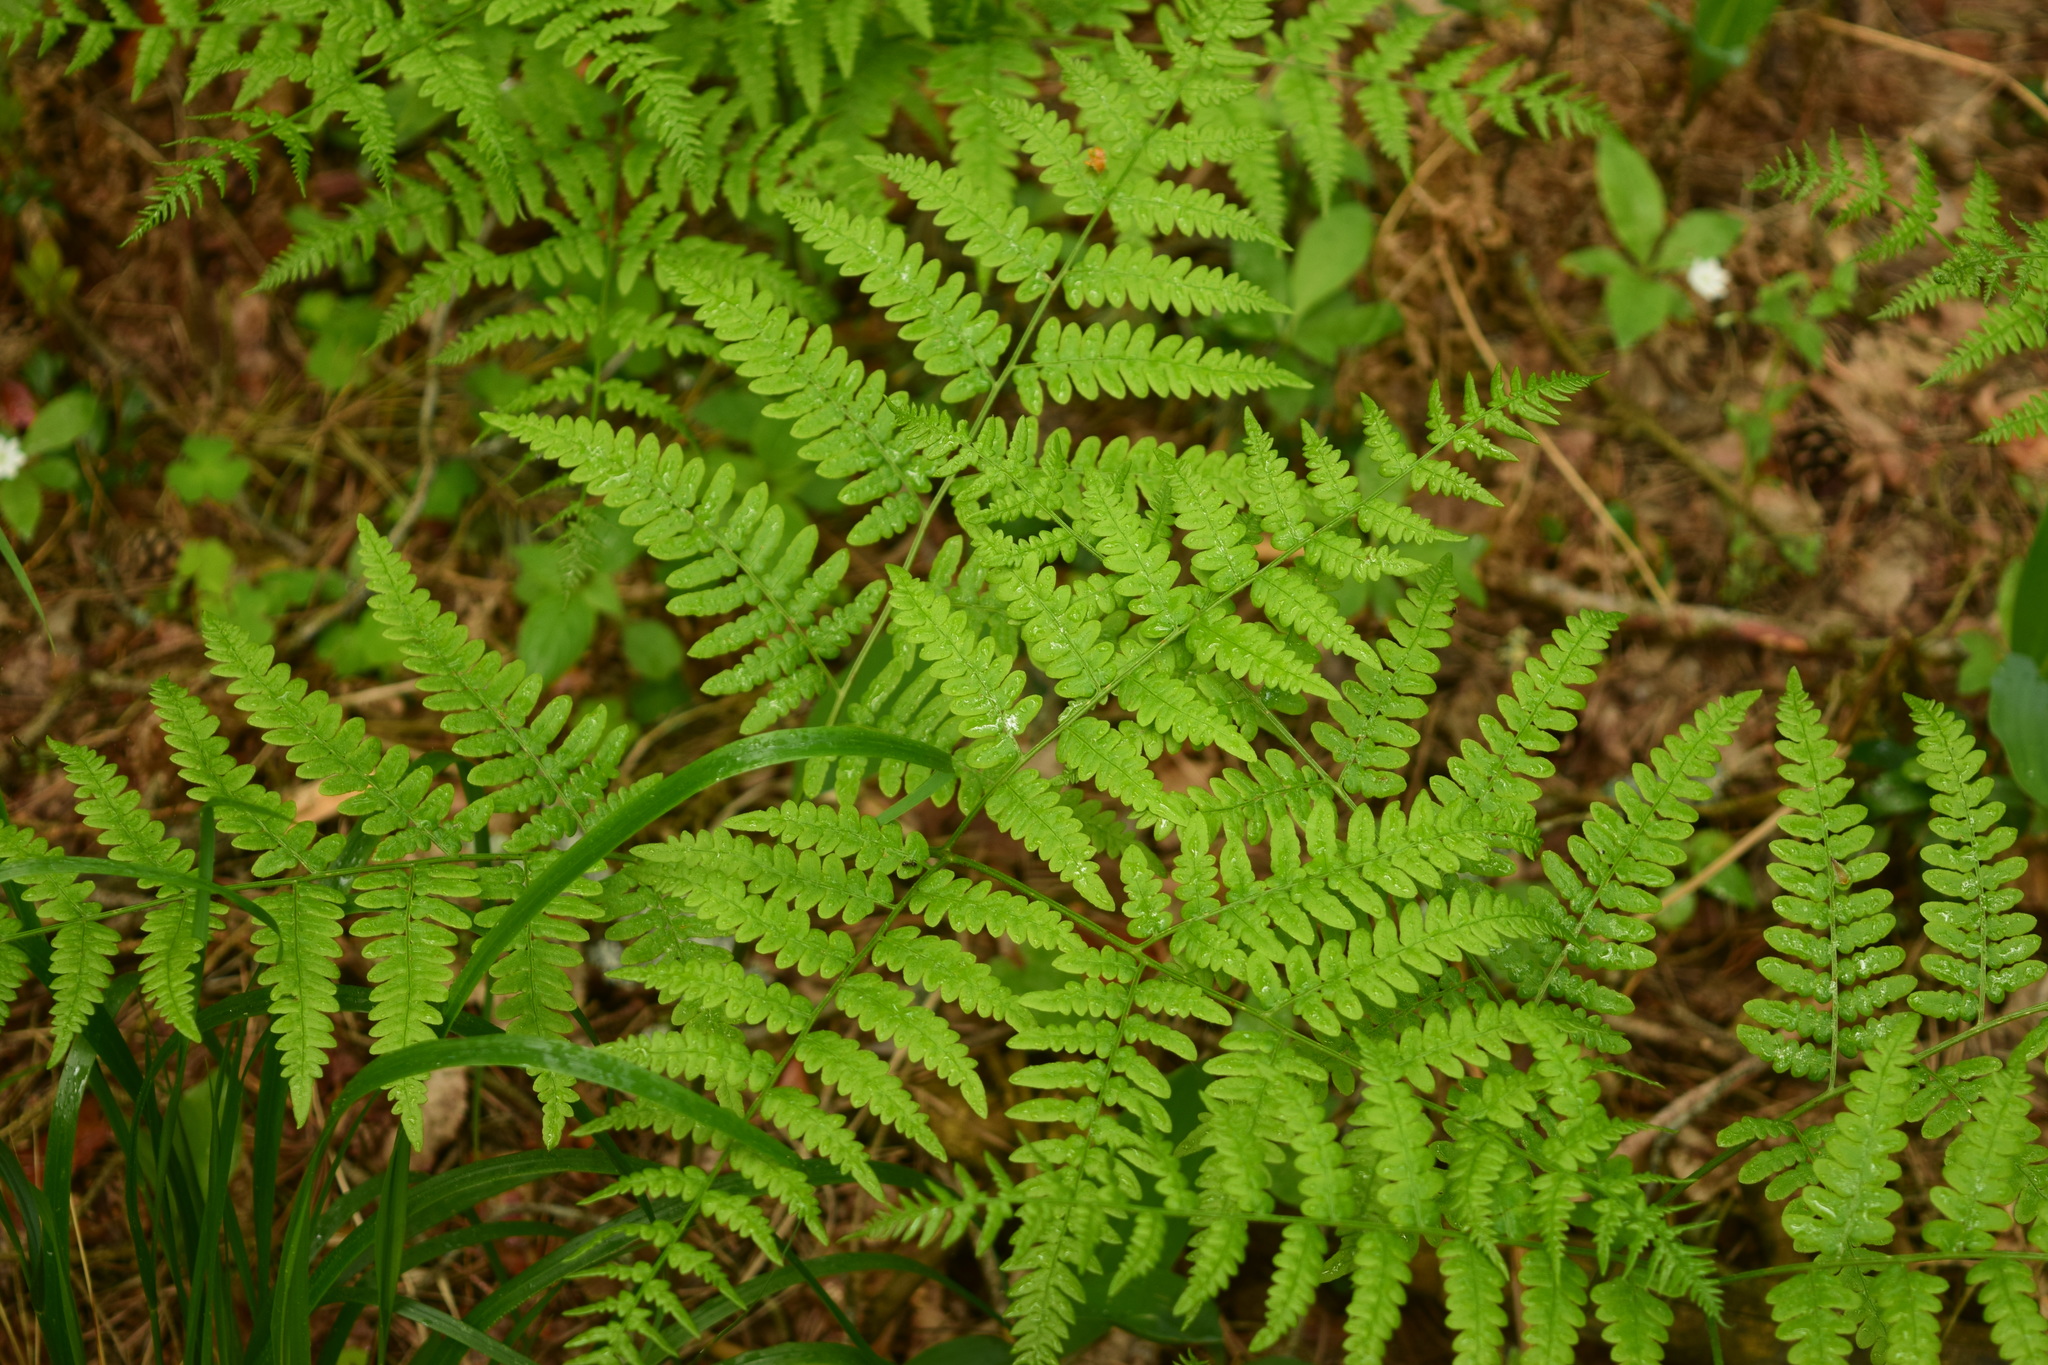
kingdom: Plantae
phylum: Tracheophyta
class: Polypodiopsida
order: Polypodiales
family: Dennstaedtiaceae
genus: Pteridium
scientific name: Pteridium aquilinum
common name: Bracken
